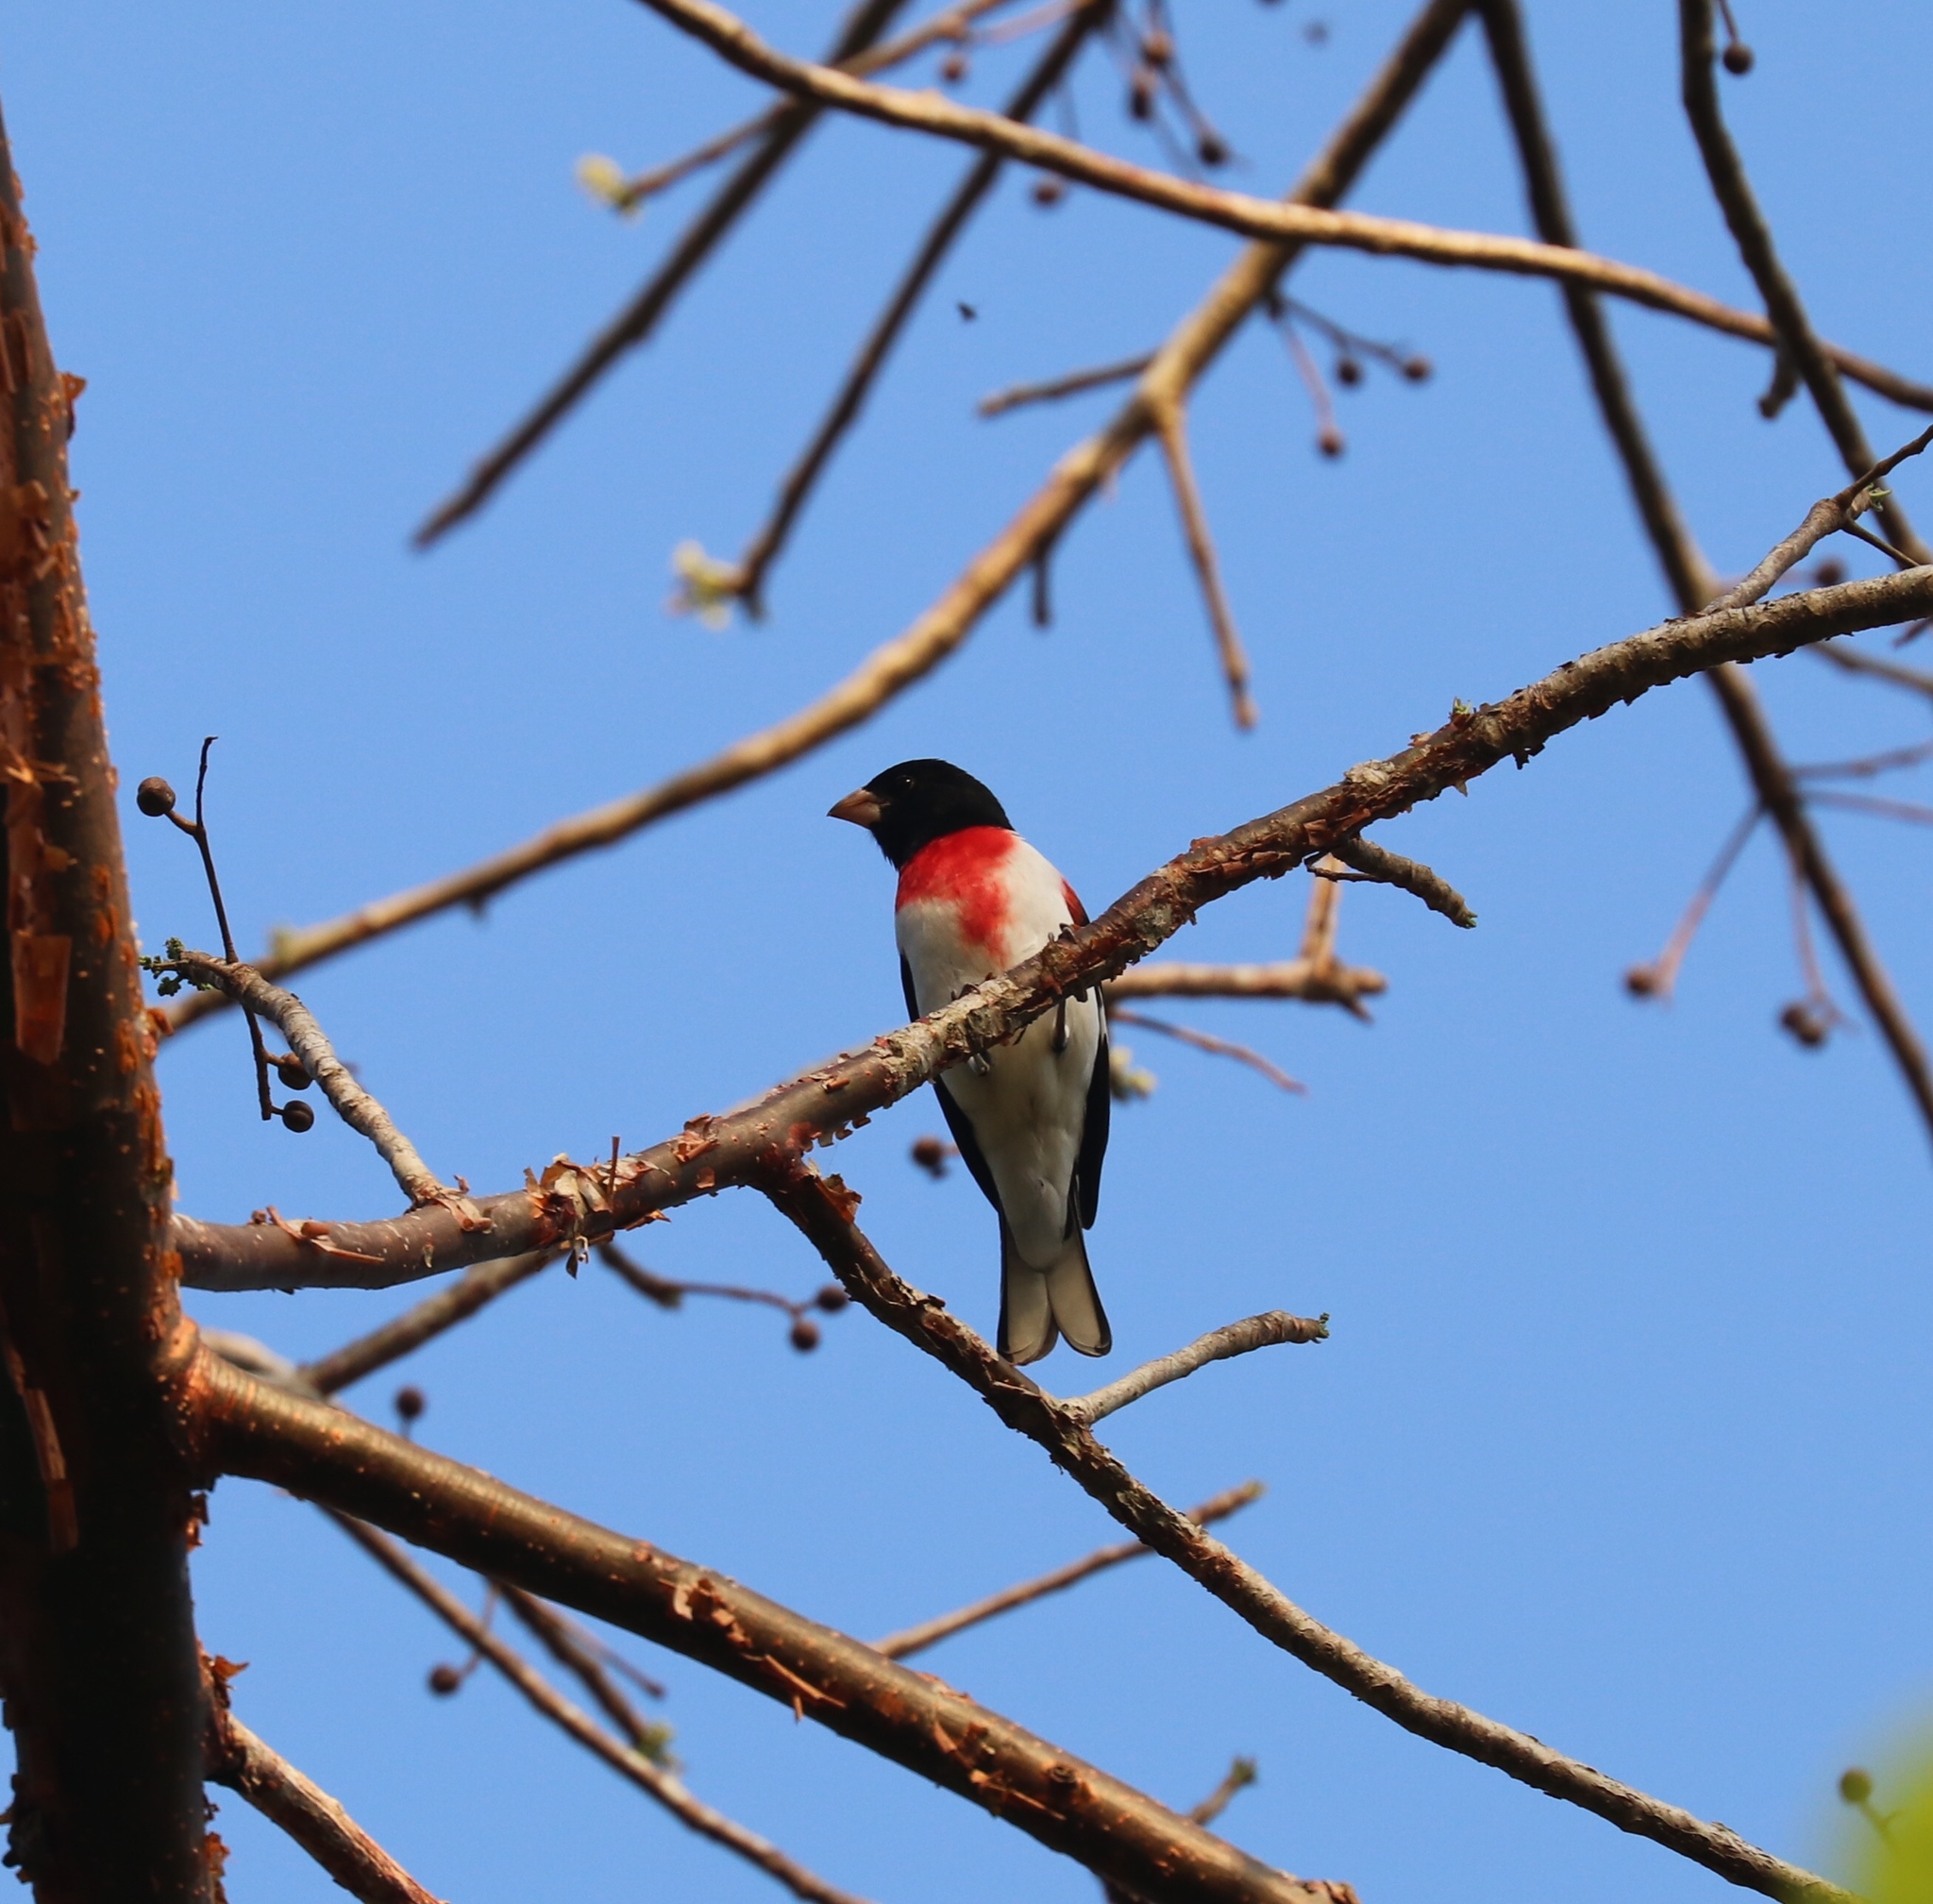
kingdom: Animalia
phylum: Chordata
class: Aves
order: Passeriformes
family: Cardinalidae
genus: Pheucticus
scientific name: Pheucticus ludovicianus
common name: Rose-breasted grosbeak
